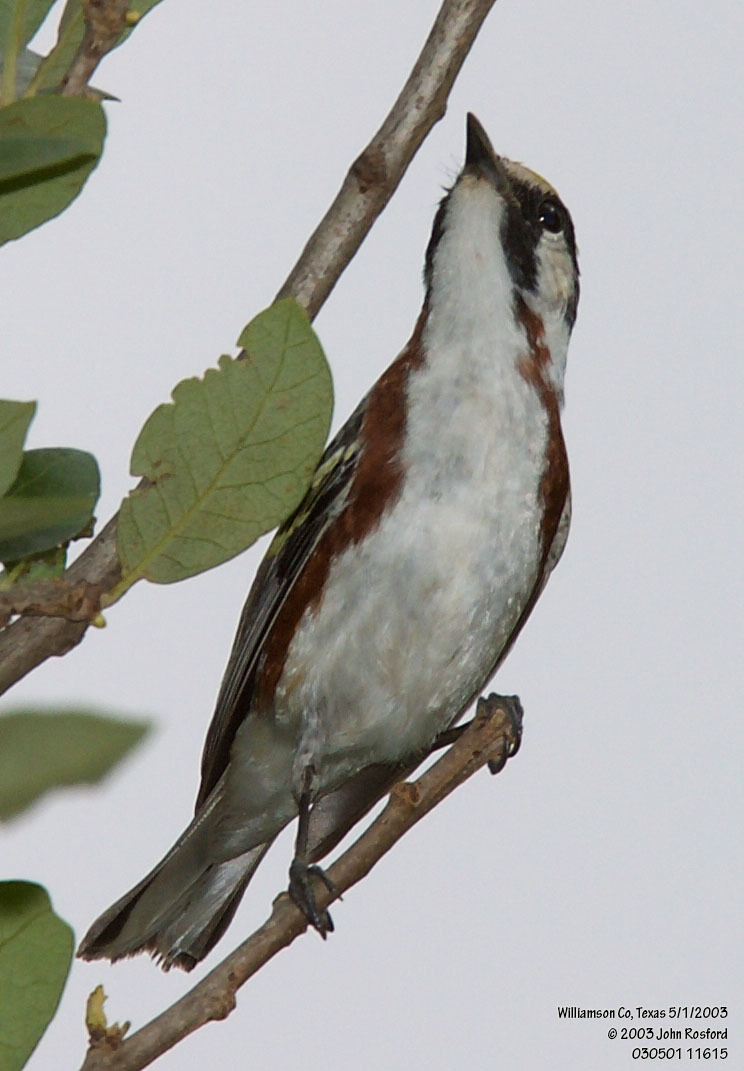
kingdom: Animalia
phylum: Chordata
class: Aves
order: Passeriformes
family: Parulidae
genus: Setophaga
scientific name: Setophaga pensylvanica
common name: Chestnut-sided warbler
